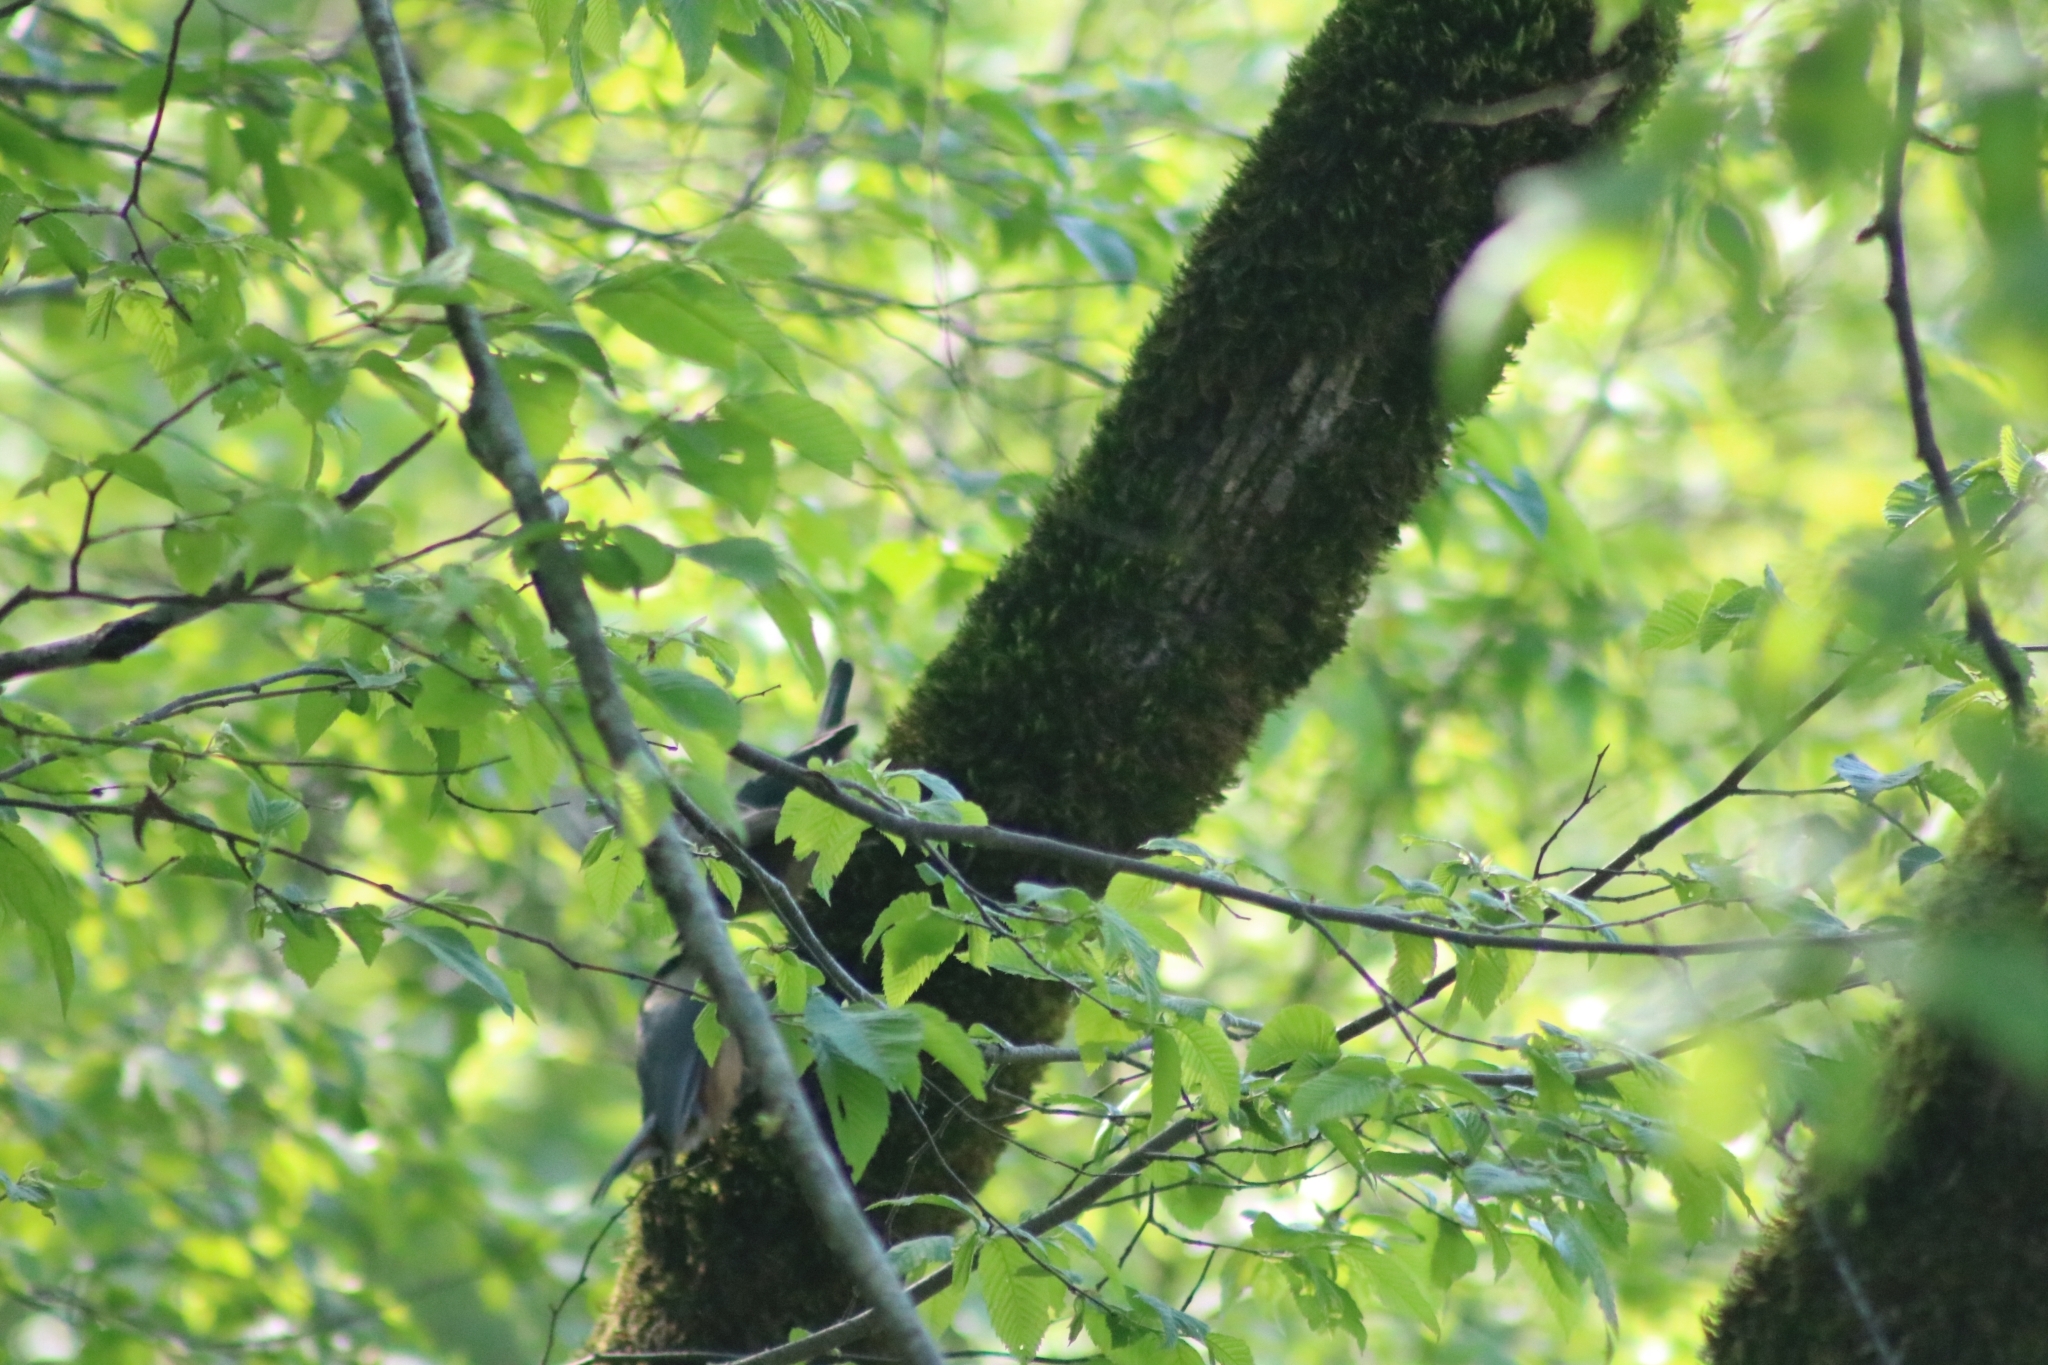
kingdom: Animalia
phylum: Chordata
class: Aves
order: Passeriformes
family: Sittidae
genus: Sitta
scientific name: Sitta europaea
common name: Eurasian nuthatch
